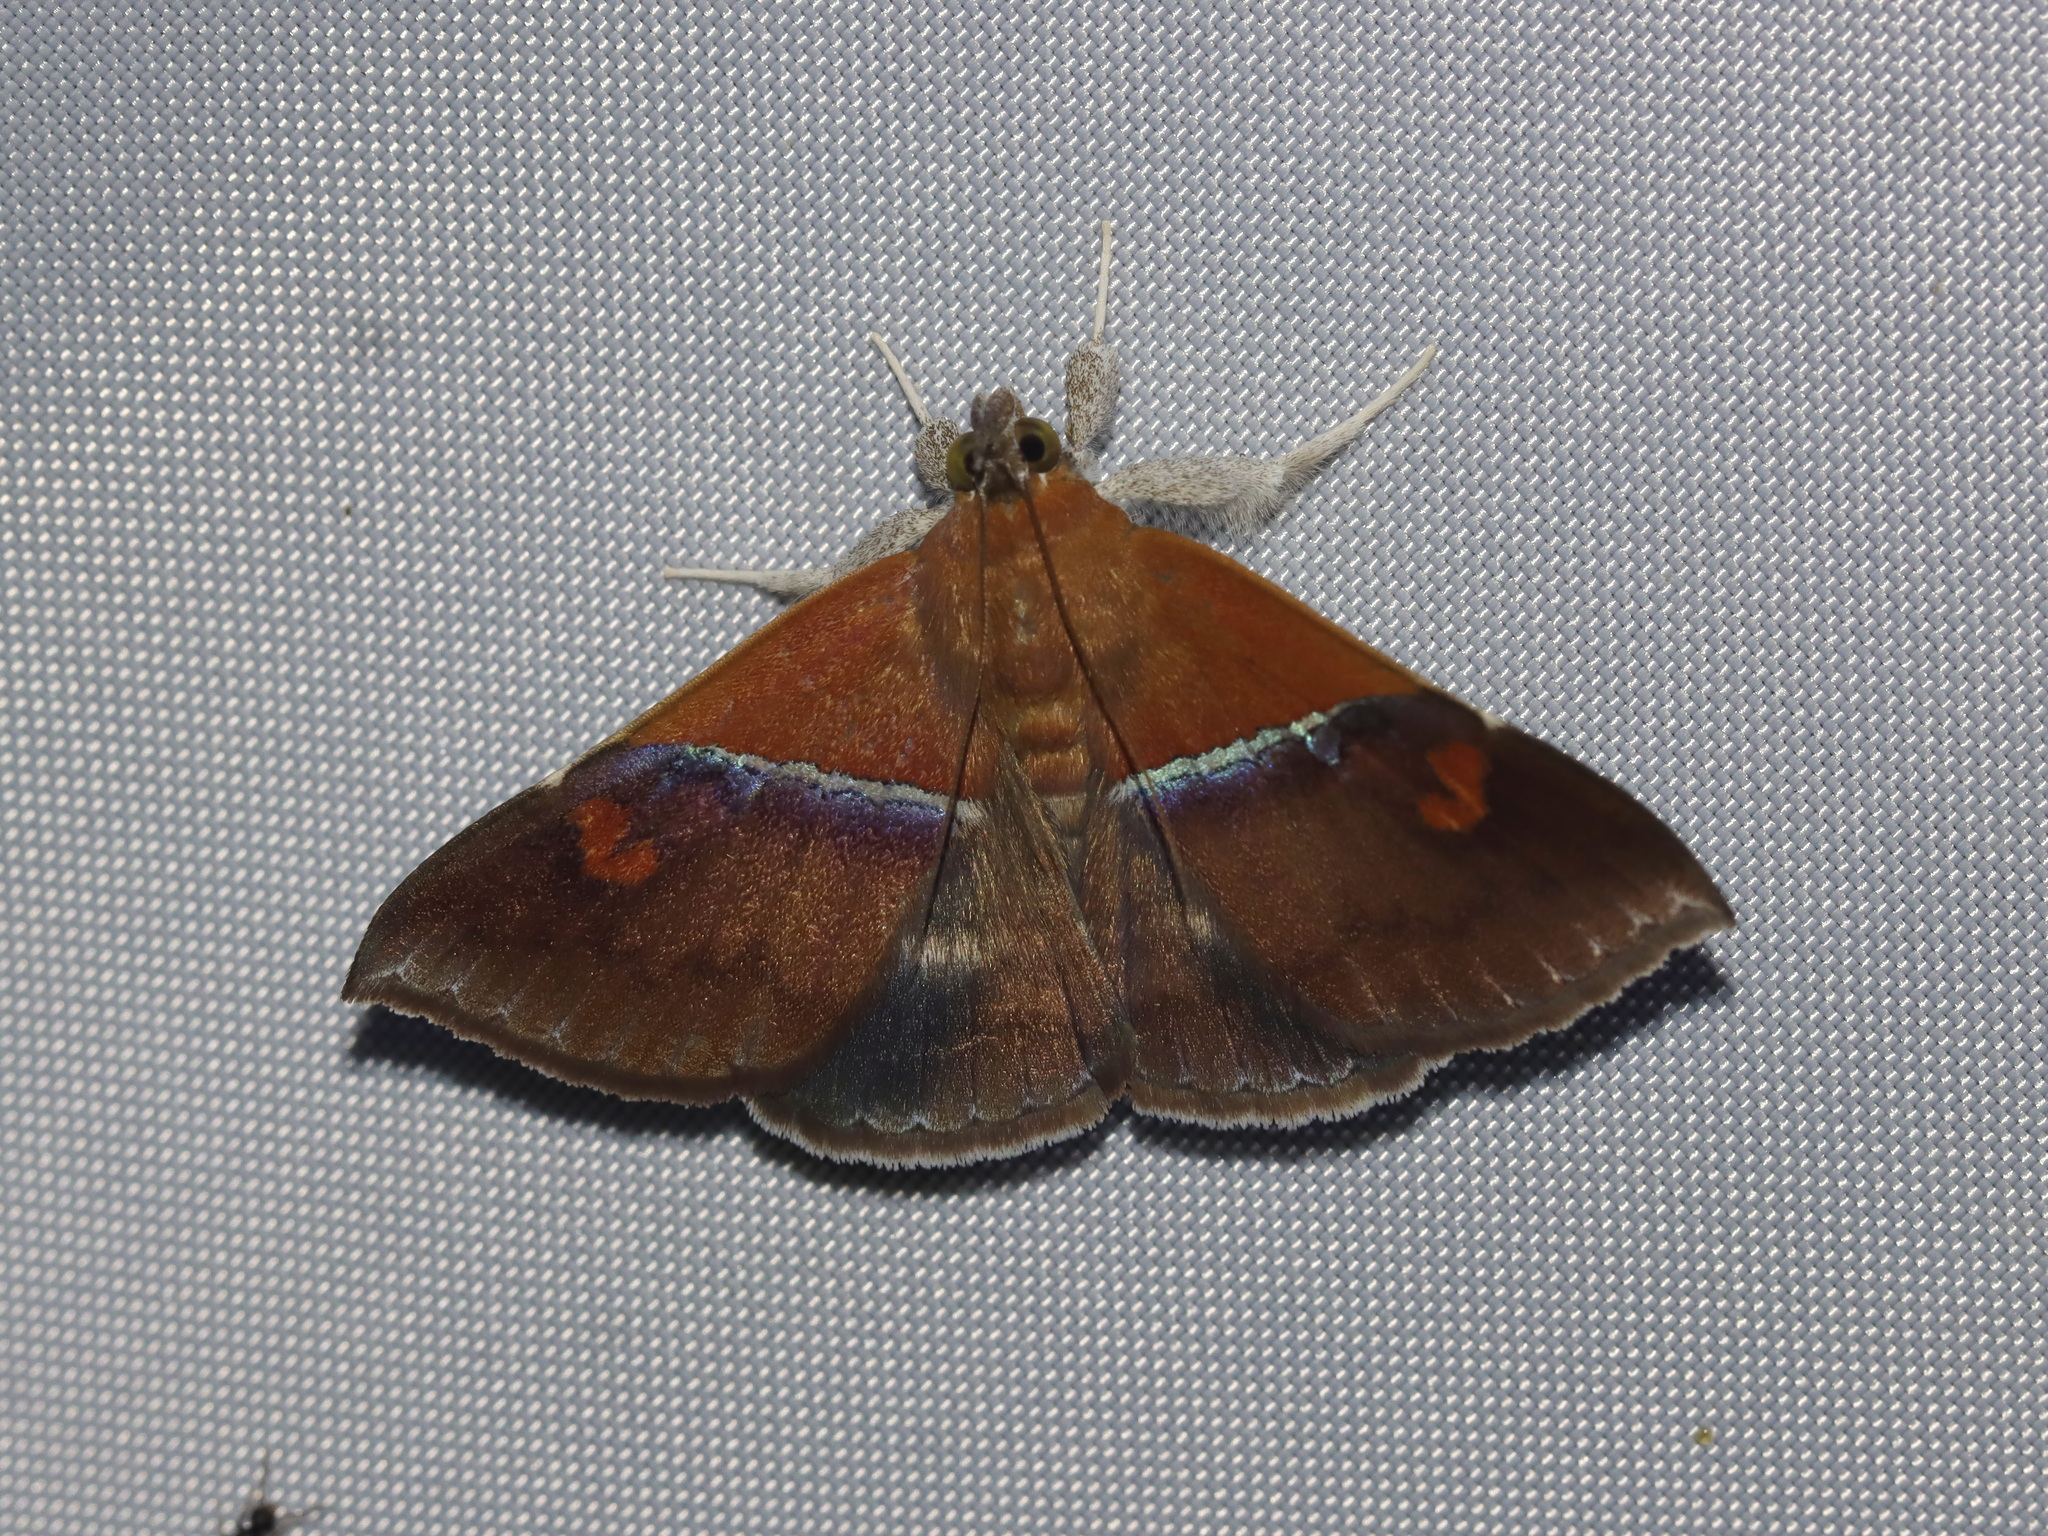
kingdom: Animalia
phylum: Arthropoda
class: Insecta
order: Lepidoptera
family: Erebidae
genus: Sympis
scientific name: Sympis rufibasis
